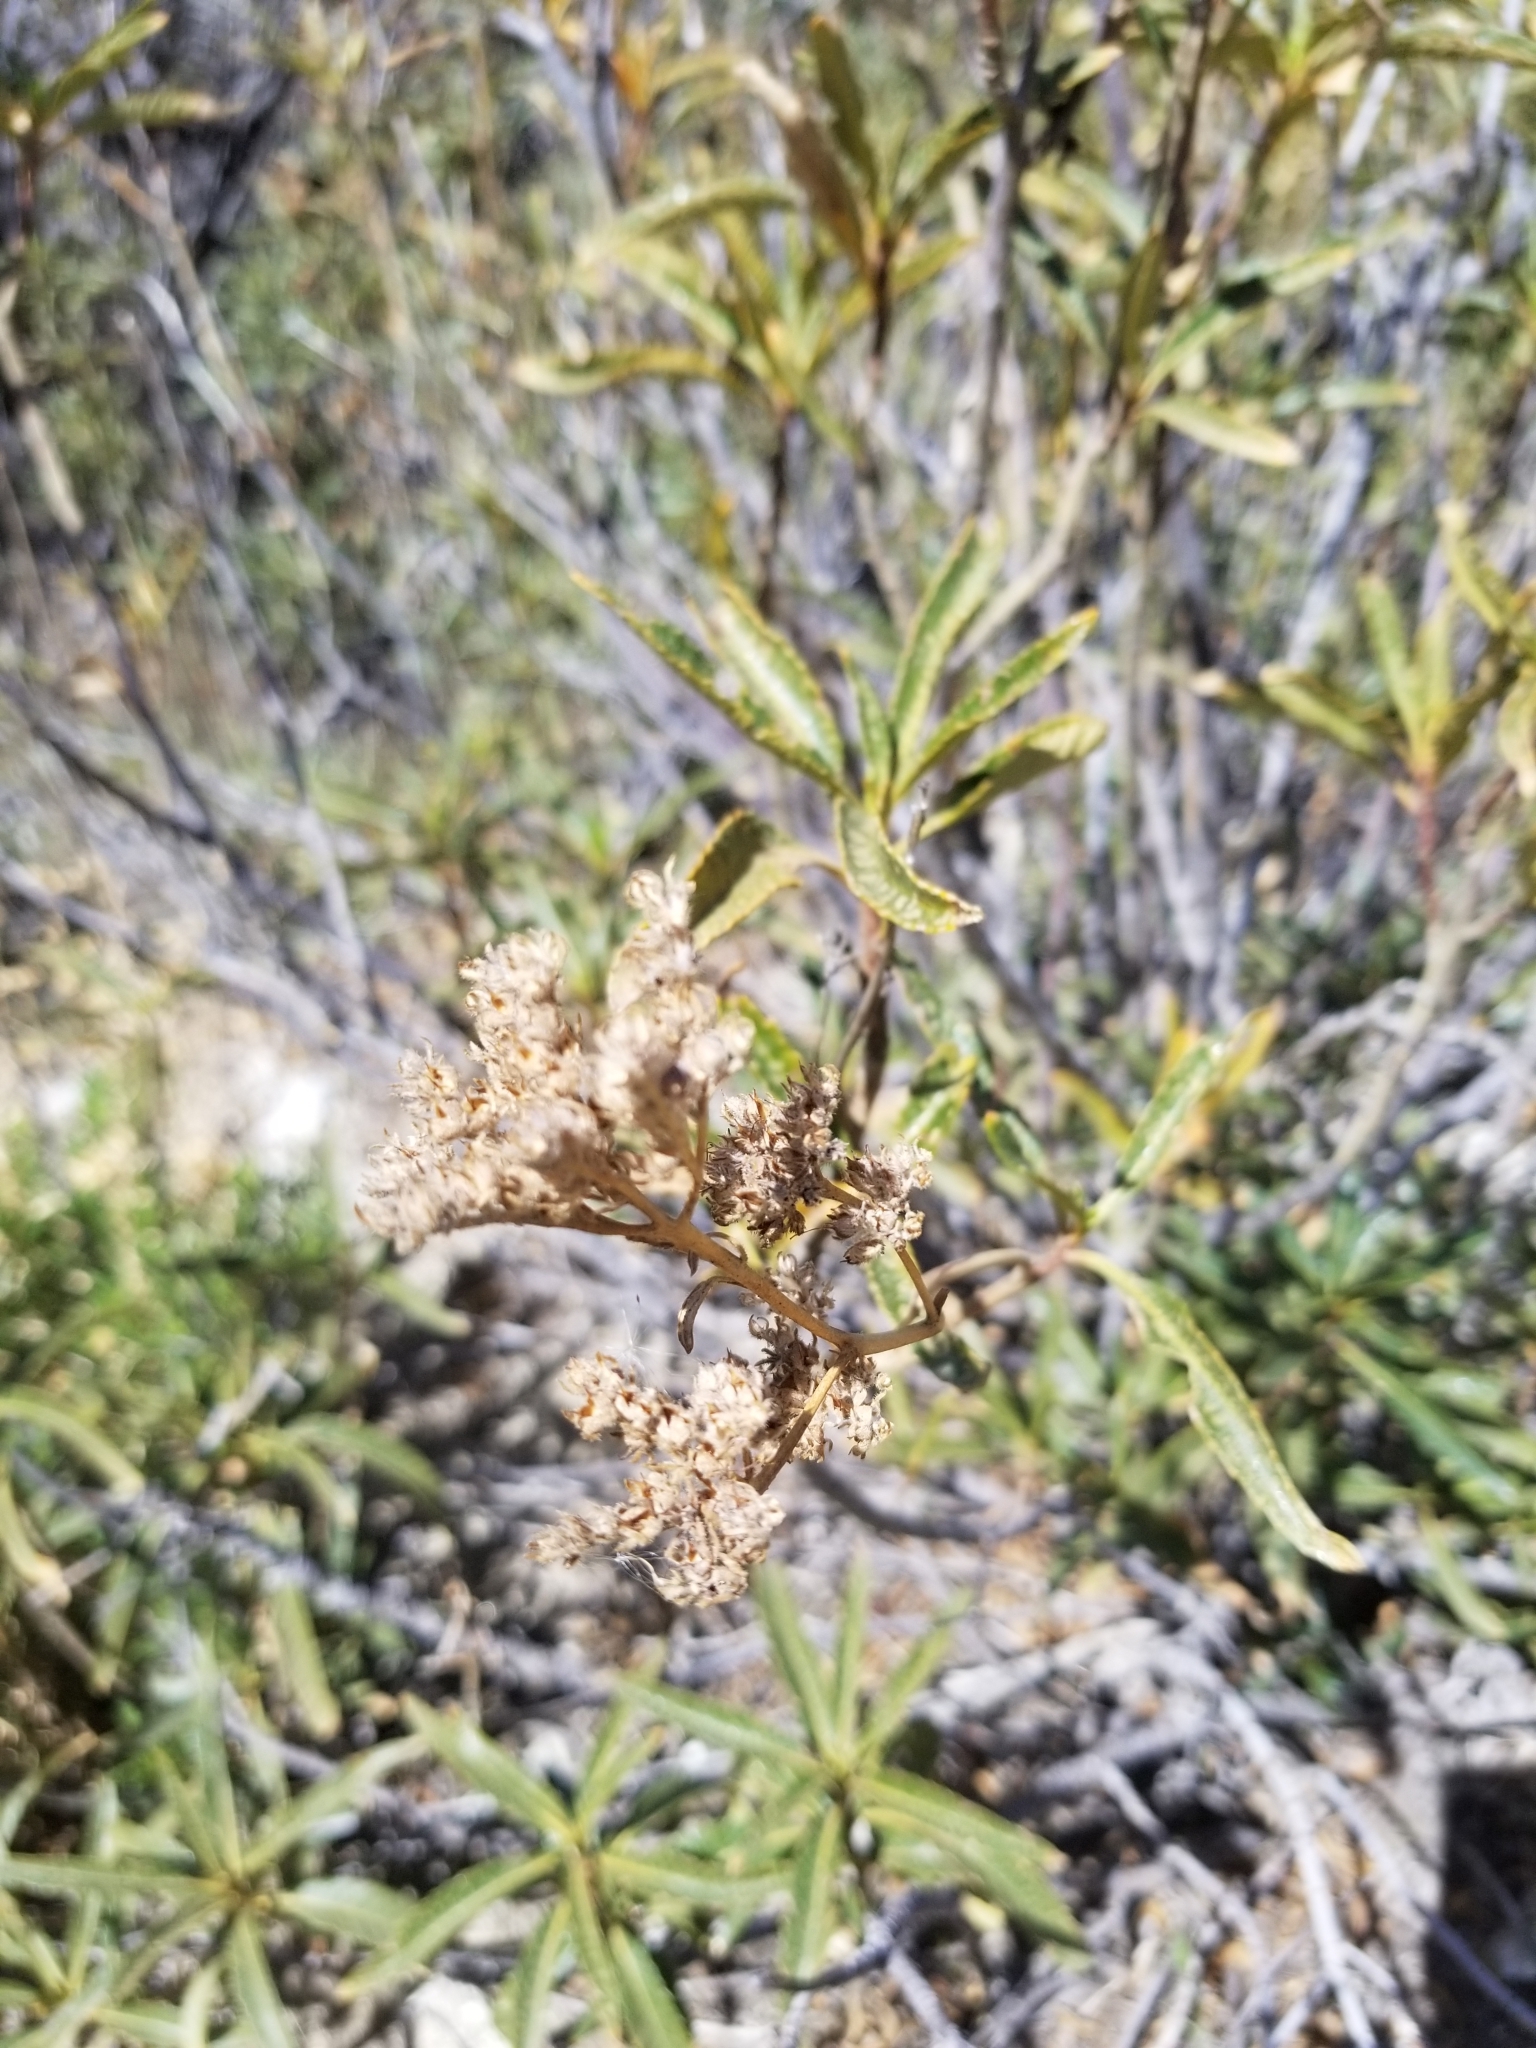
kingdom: Plantae
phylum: Tracheophyta
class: Magnoliopsida
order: Boraginales
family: Namaceae
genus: Eriodictyon
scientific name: Eriodictyon trichocalyx
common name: Hairy yerba-santa
